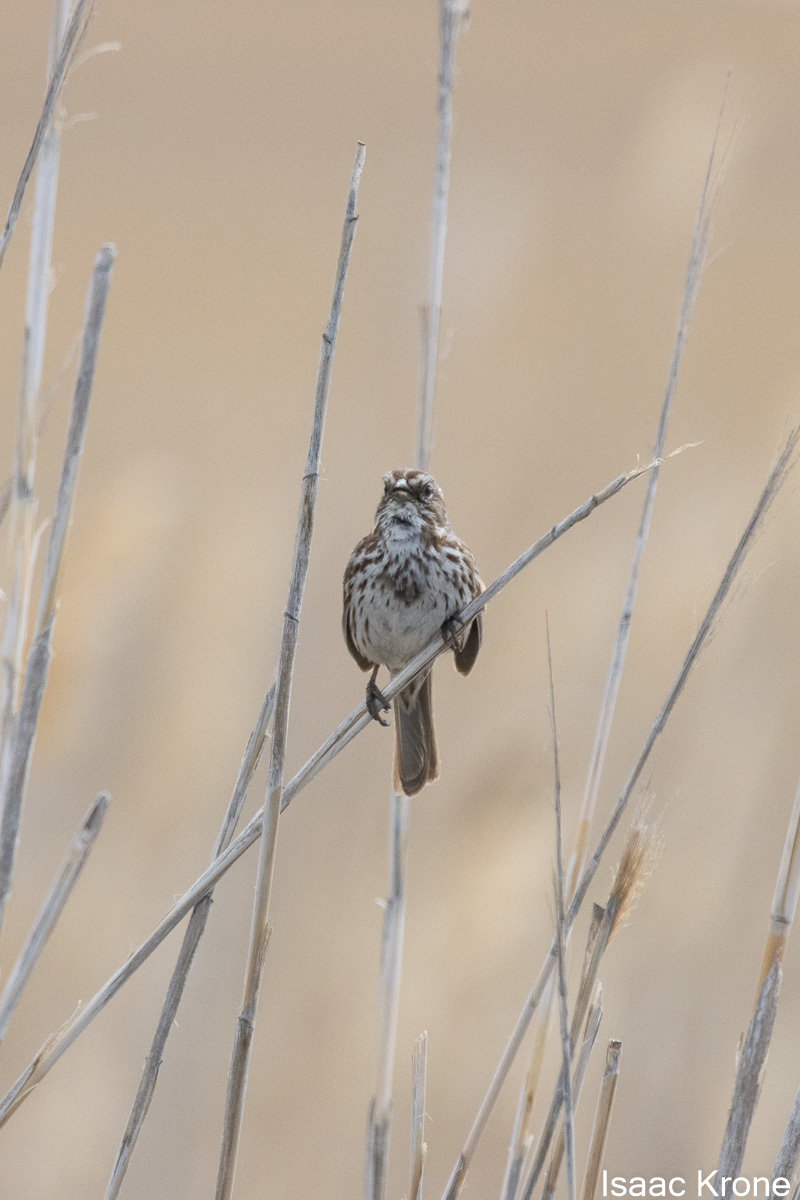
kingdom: Animalia
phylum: Chordata
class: Aves
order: Passeriformes
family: Passerellidae
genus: Melospiza
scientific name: Melospiza melodia
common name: Song sparrow
